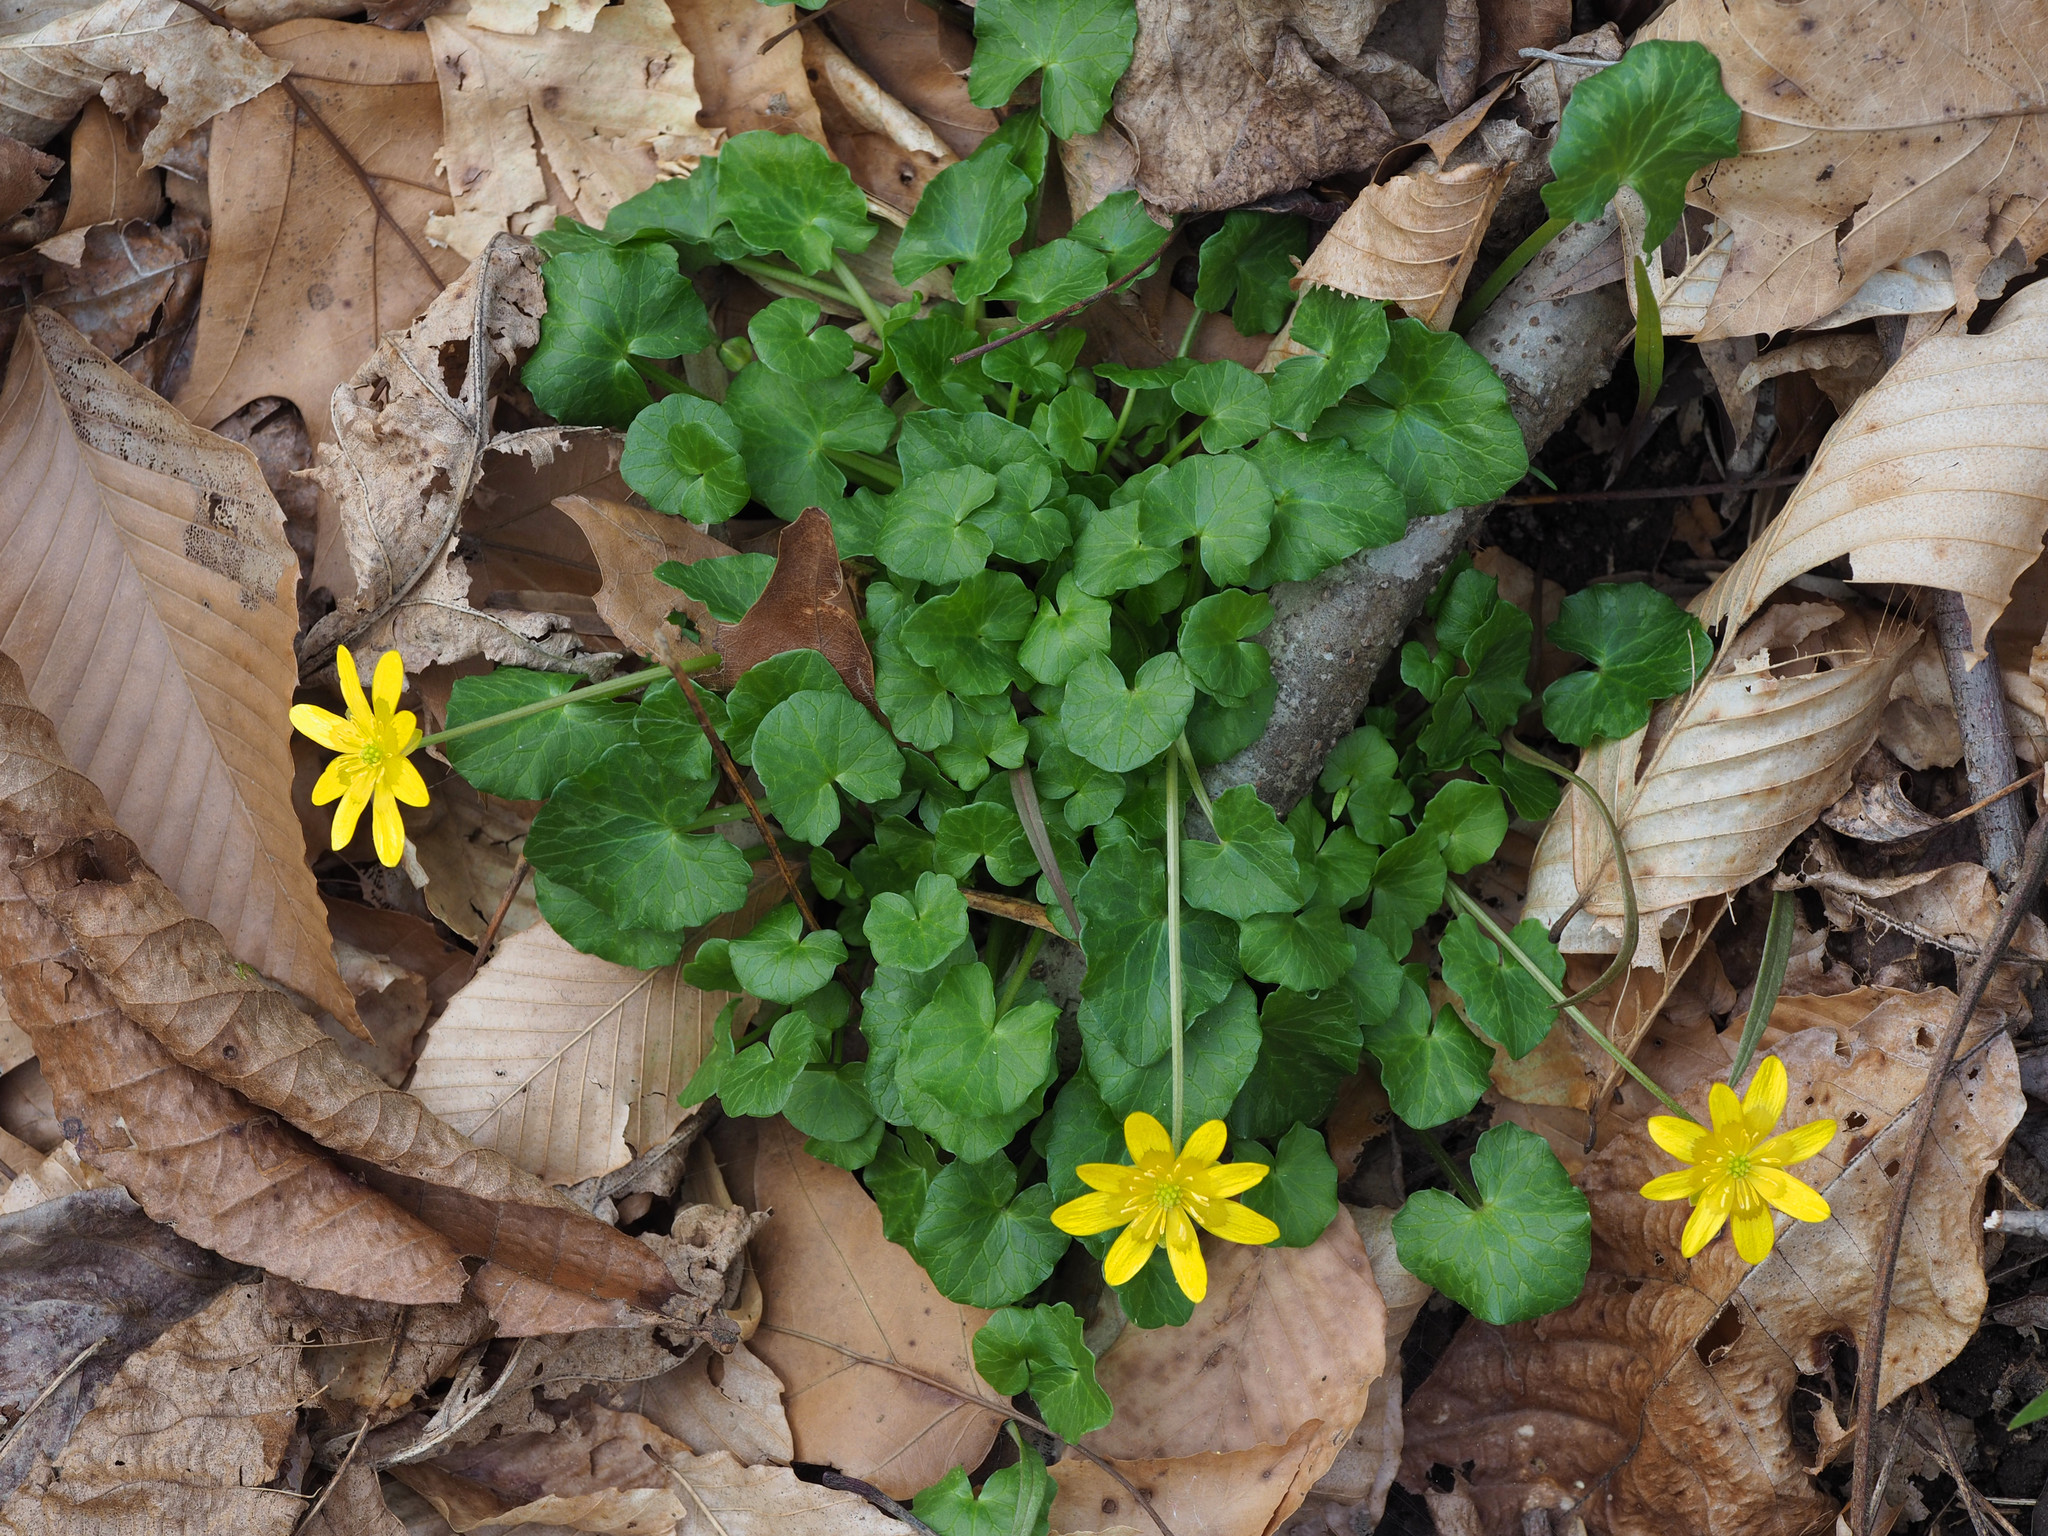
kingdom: Plantae
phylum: Tracheophyta
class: Magnoliopsida
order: Ranunculales
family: Ranunculaceae
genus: Ficaria
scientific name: Ficaria verna
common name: Lesser celandine
